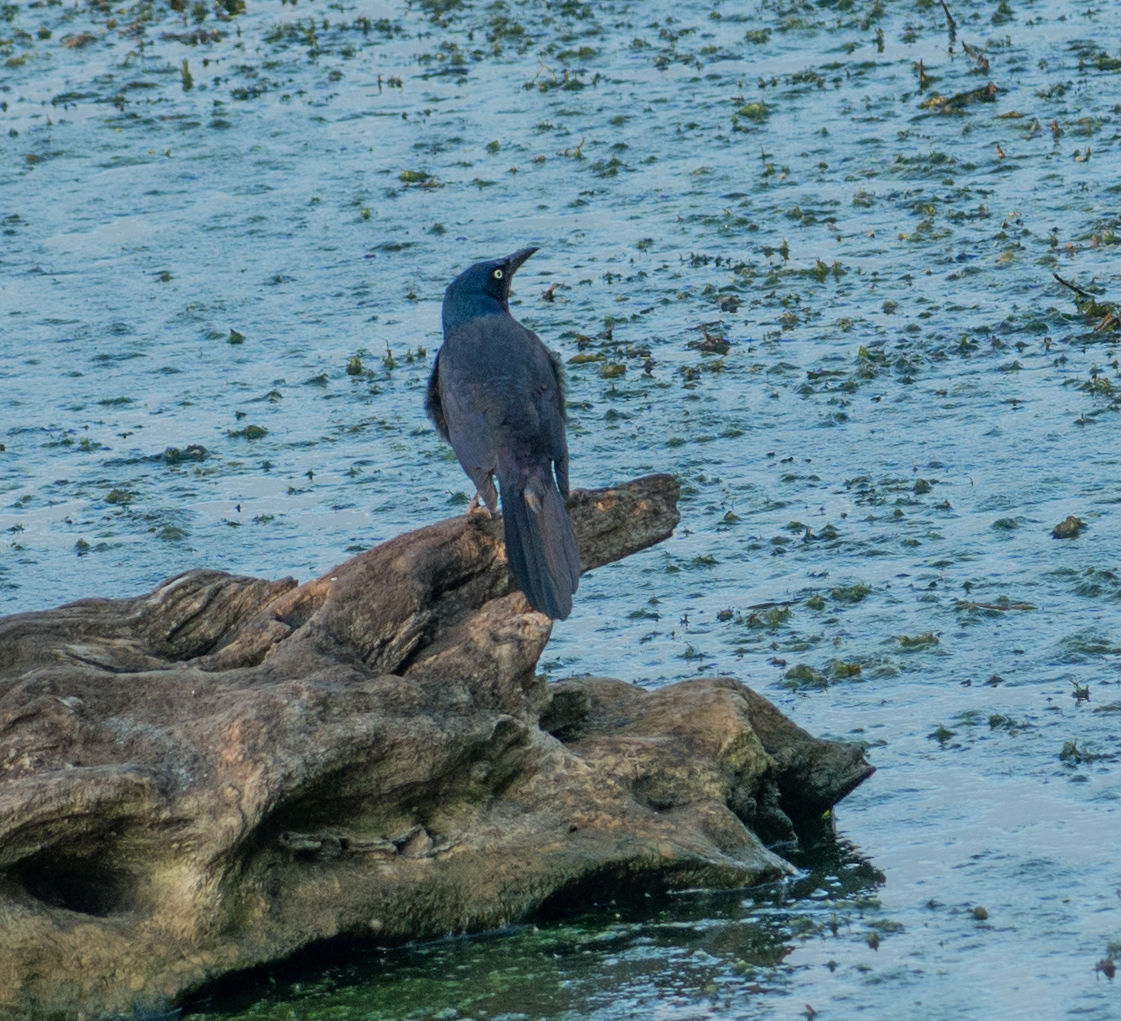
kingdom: Animalia
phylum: Chordata
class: Aves
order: Passeriformes
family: Icteridae
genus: Quiscalus
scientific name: Quiscalus quiscula
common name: Common grackle
